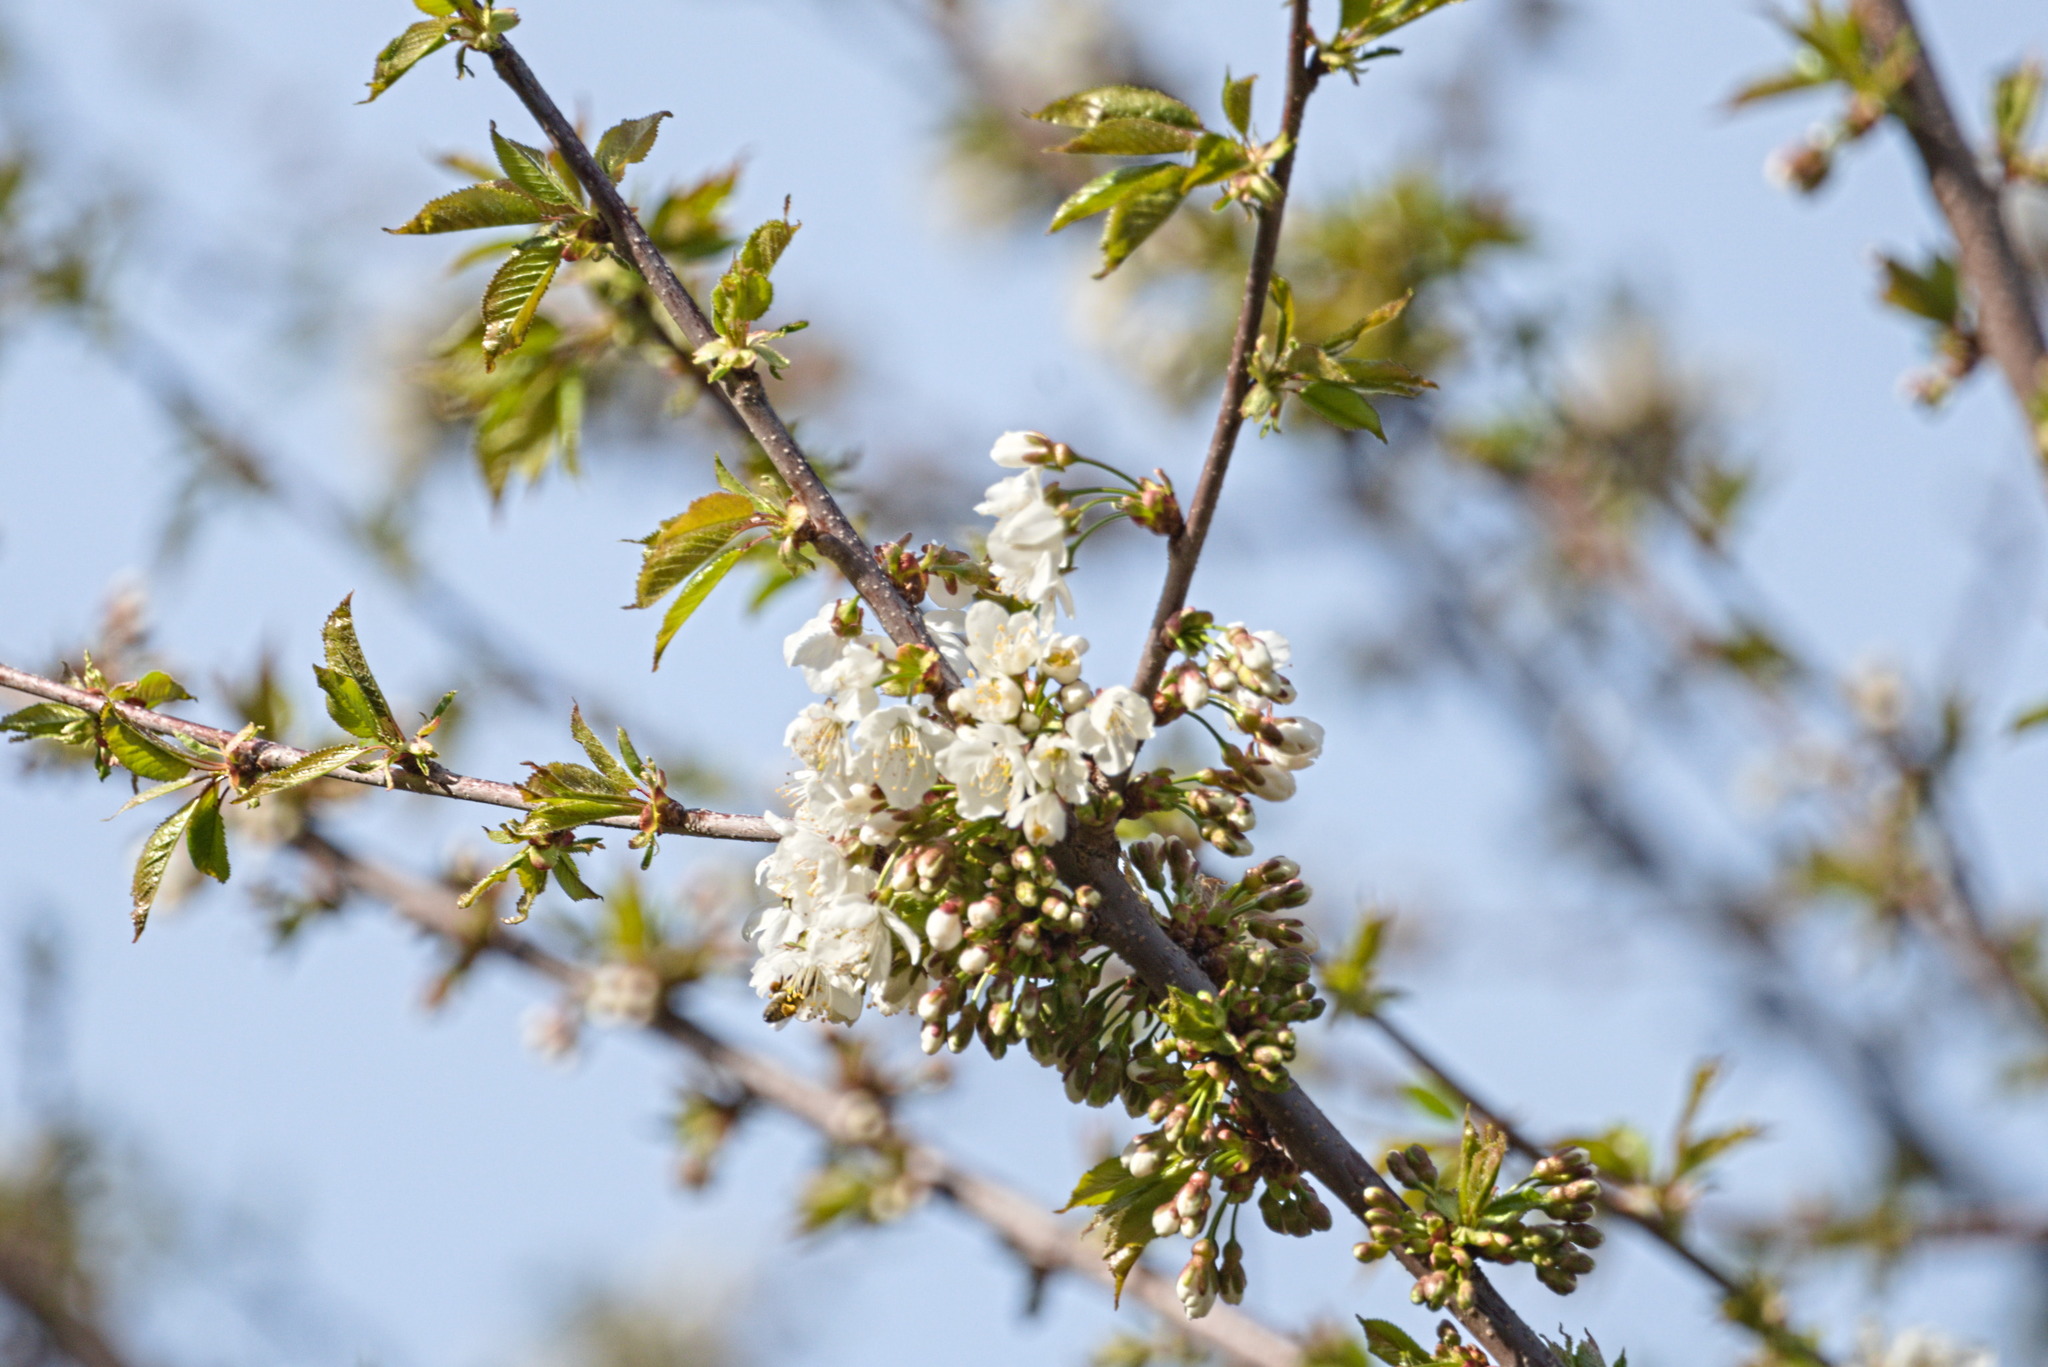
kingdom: Plantae
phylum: Tracheophyta
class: Magnoliopsida
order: Rosales
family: Rosaceae
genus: Prunus
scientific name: Prunus avium
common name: Sweet cherry
